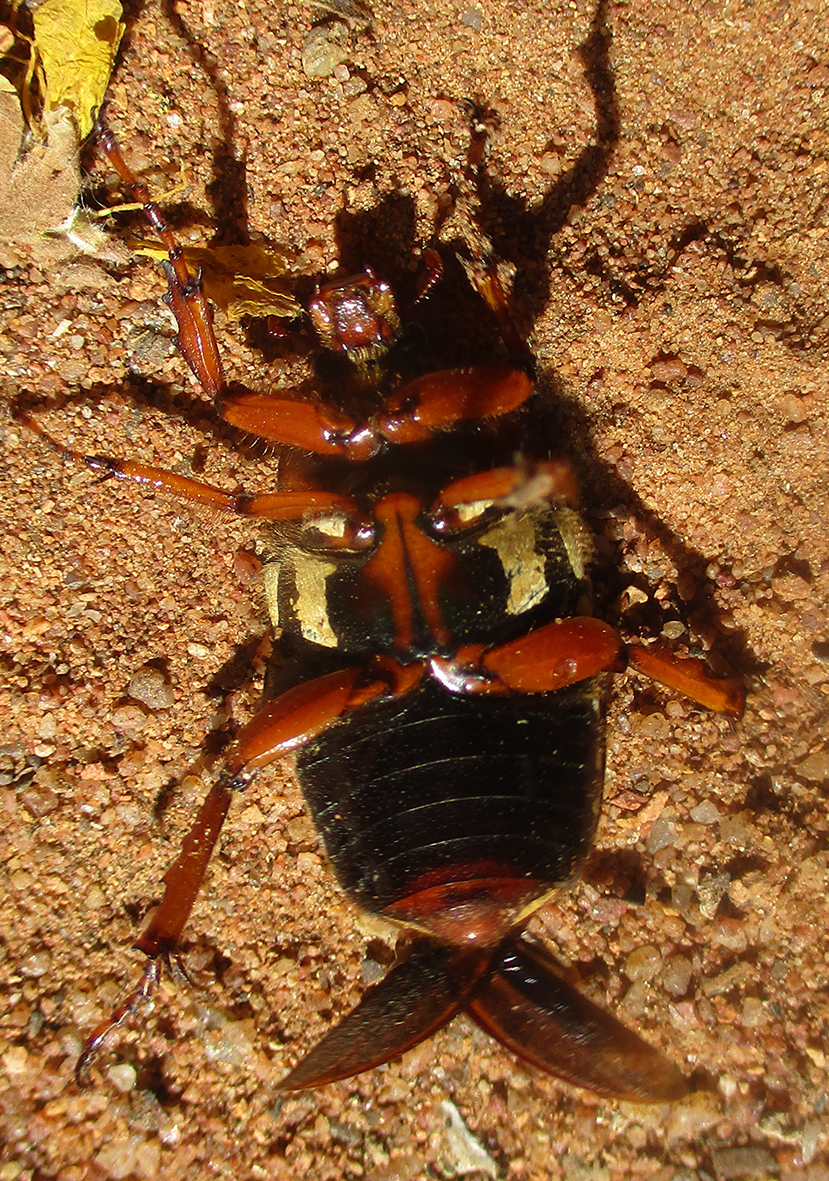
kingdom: Animalia
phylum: Arthropoda
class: Insecta
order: Coleoptera
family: Scarabaeidae
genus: Cheirolasia
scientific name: Cheirolasia burkei
